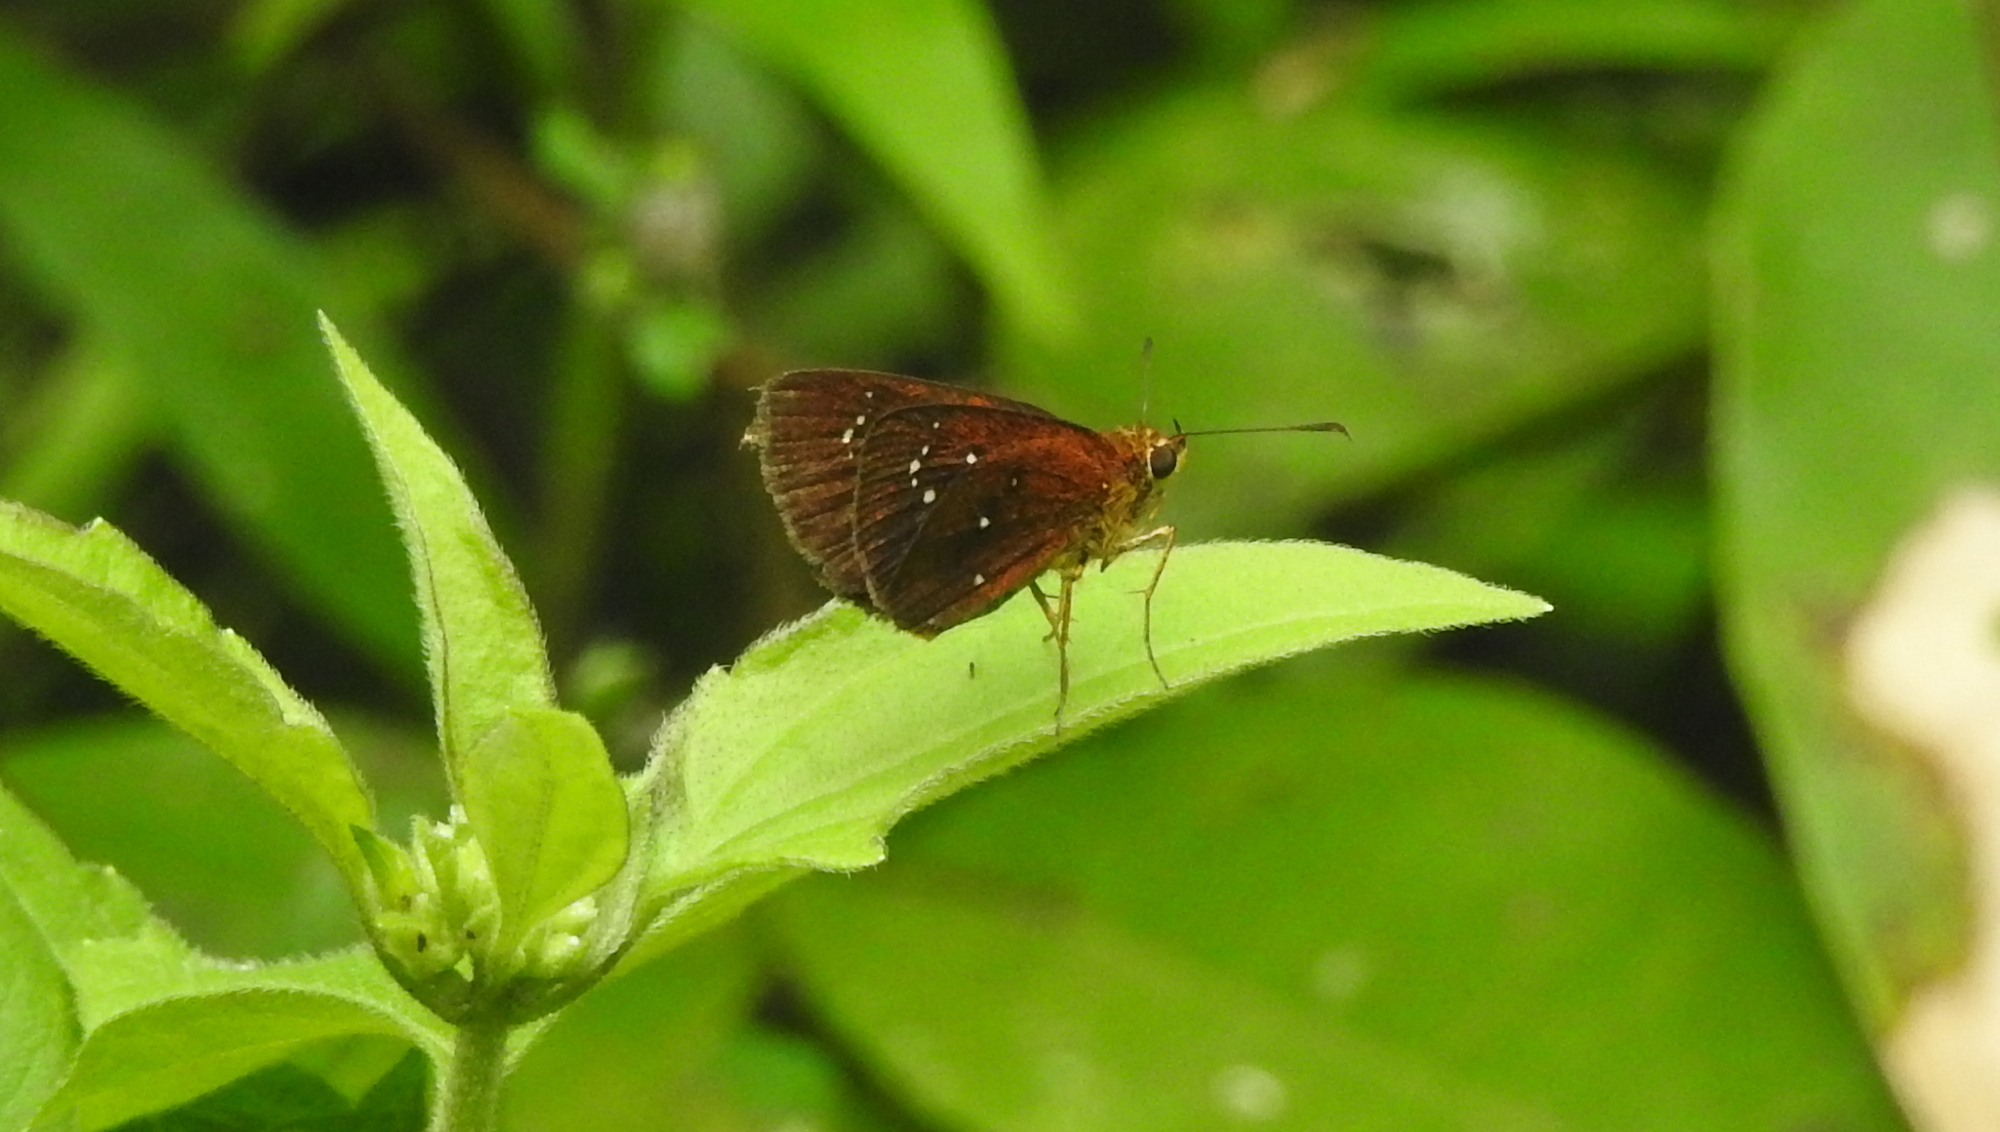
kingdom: Animalia
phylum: Arthropoda
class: Insecta
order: Lepidoptera
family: Hesperiidae
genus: Iambrix
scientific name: Iambrix salsala
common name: Chestnut bob
